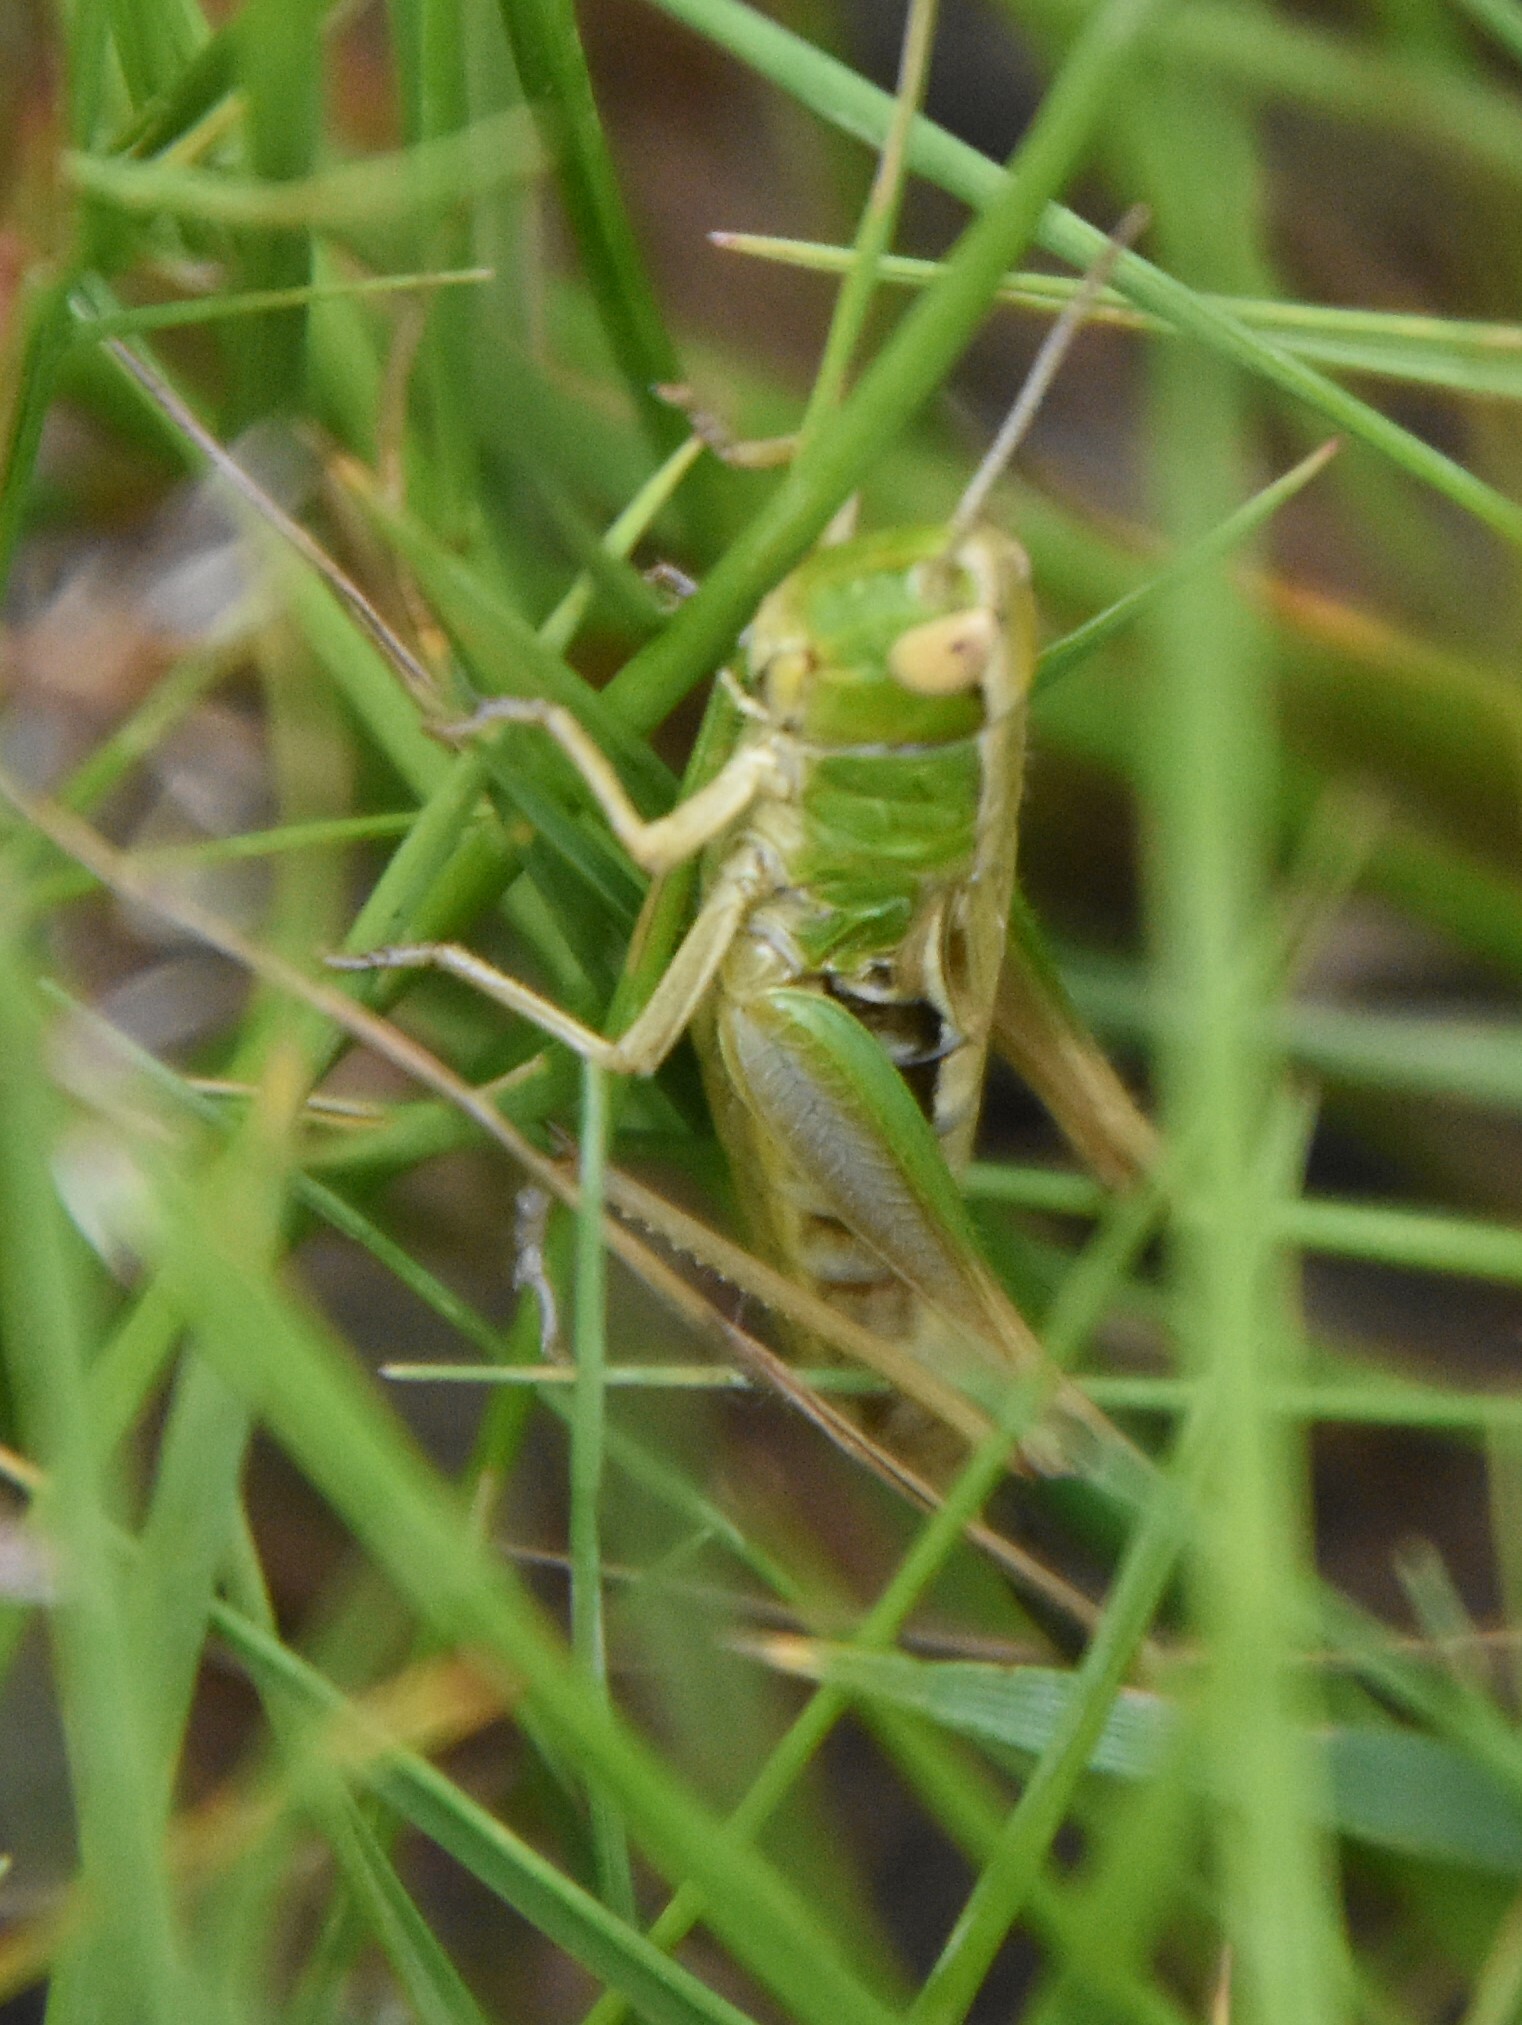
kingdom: Animalia
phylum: Arthropoda
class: Insecta
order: Orthoptera
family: Acrididae
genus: Pseudochorthippus
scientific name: Pseudochorthippus parallelus
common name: Meadow grasshopper
